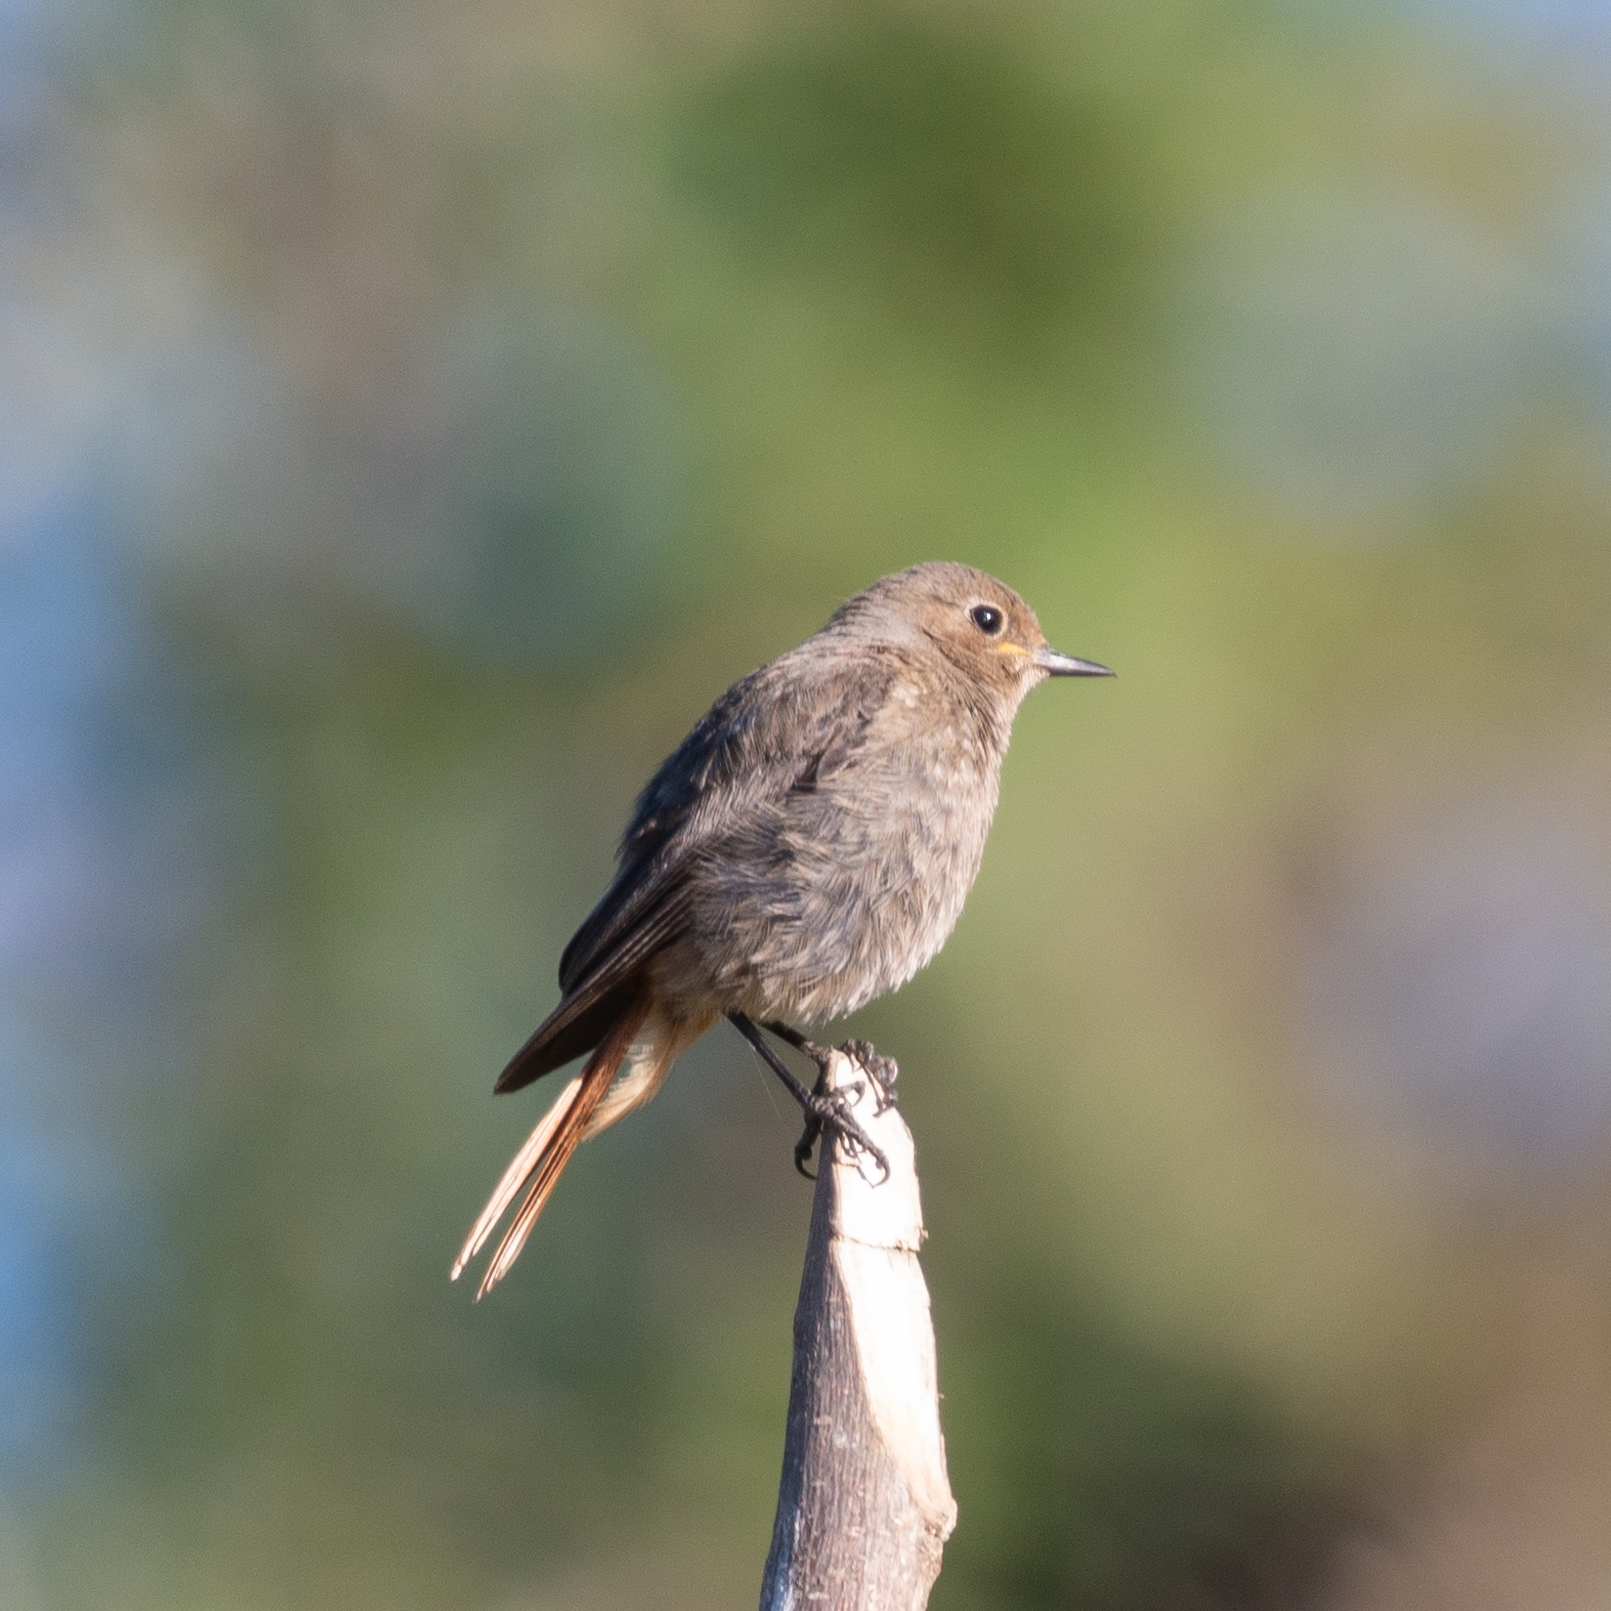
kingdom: Animalia
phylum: Chordata
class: Aves
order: Passeriformes
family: Muscicapidae
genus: Phoenicurus
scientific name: Phoenicurus ochruros
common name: Black redstart
